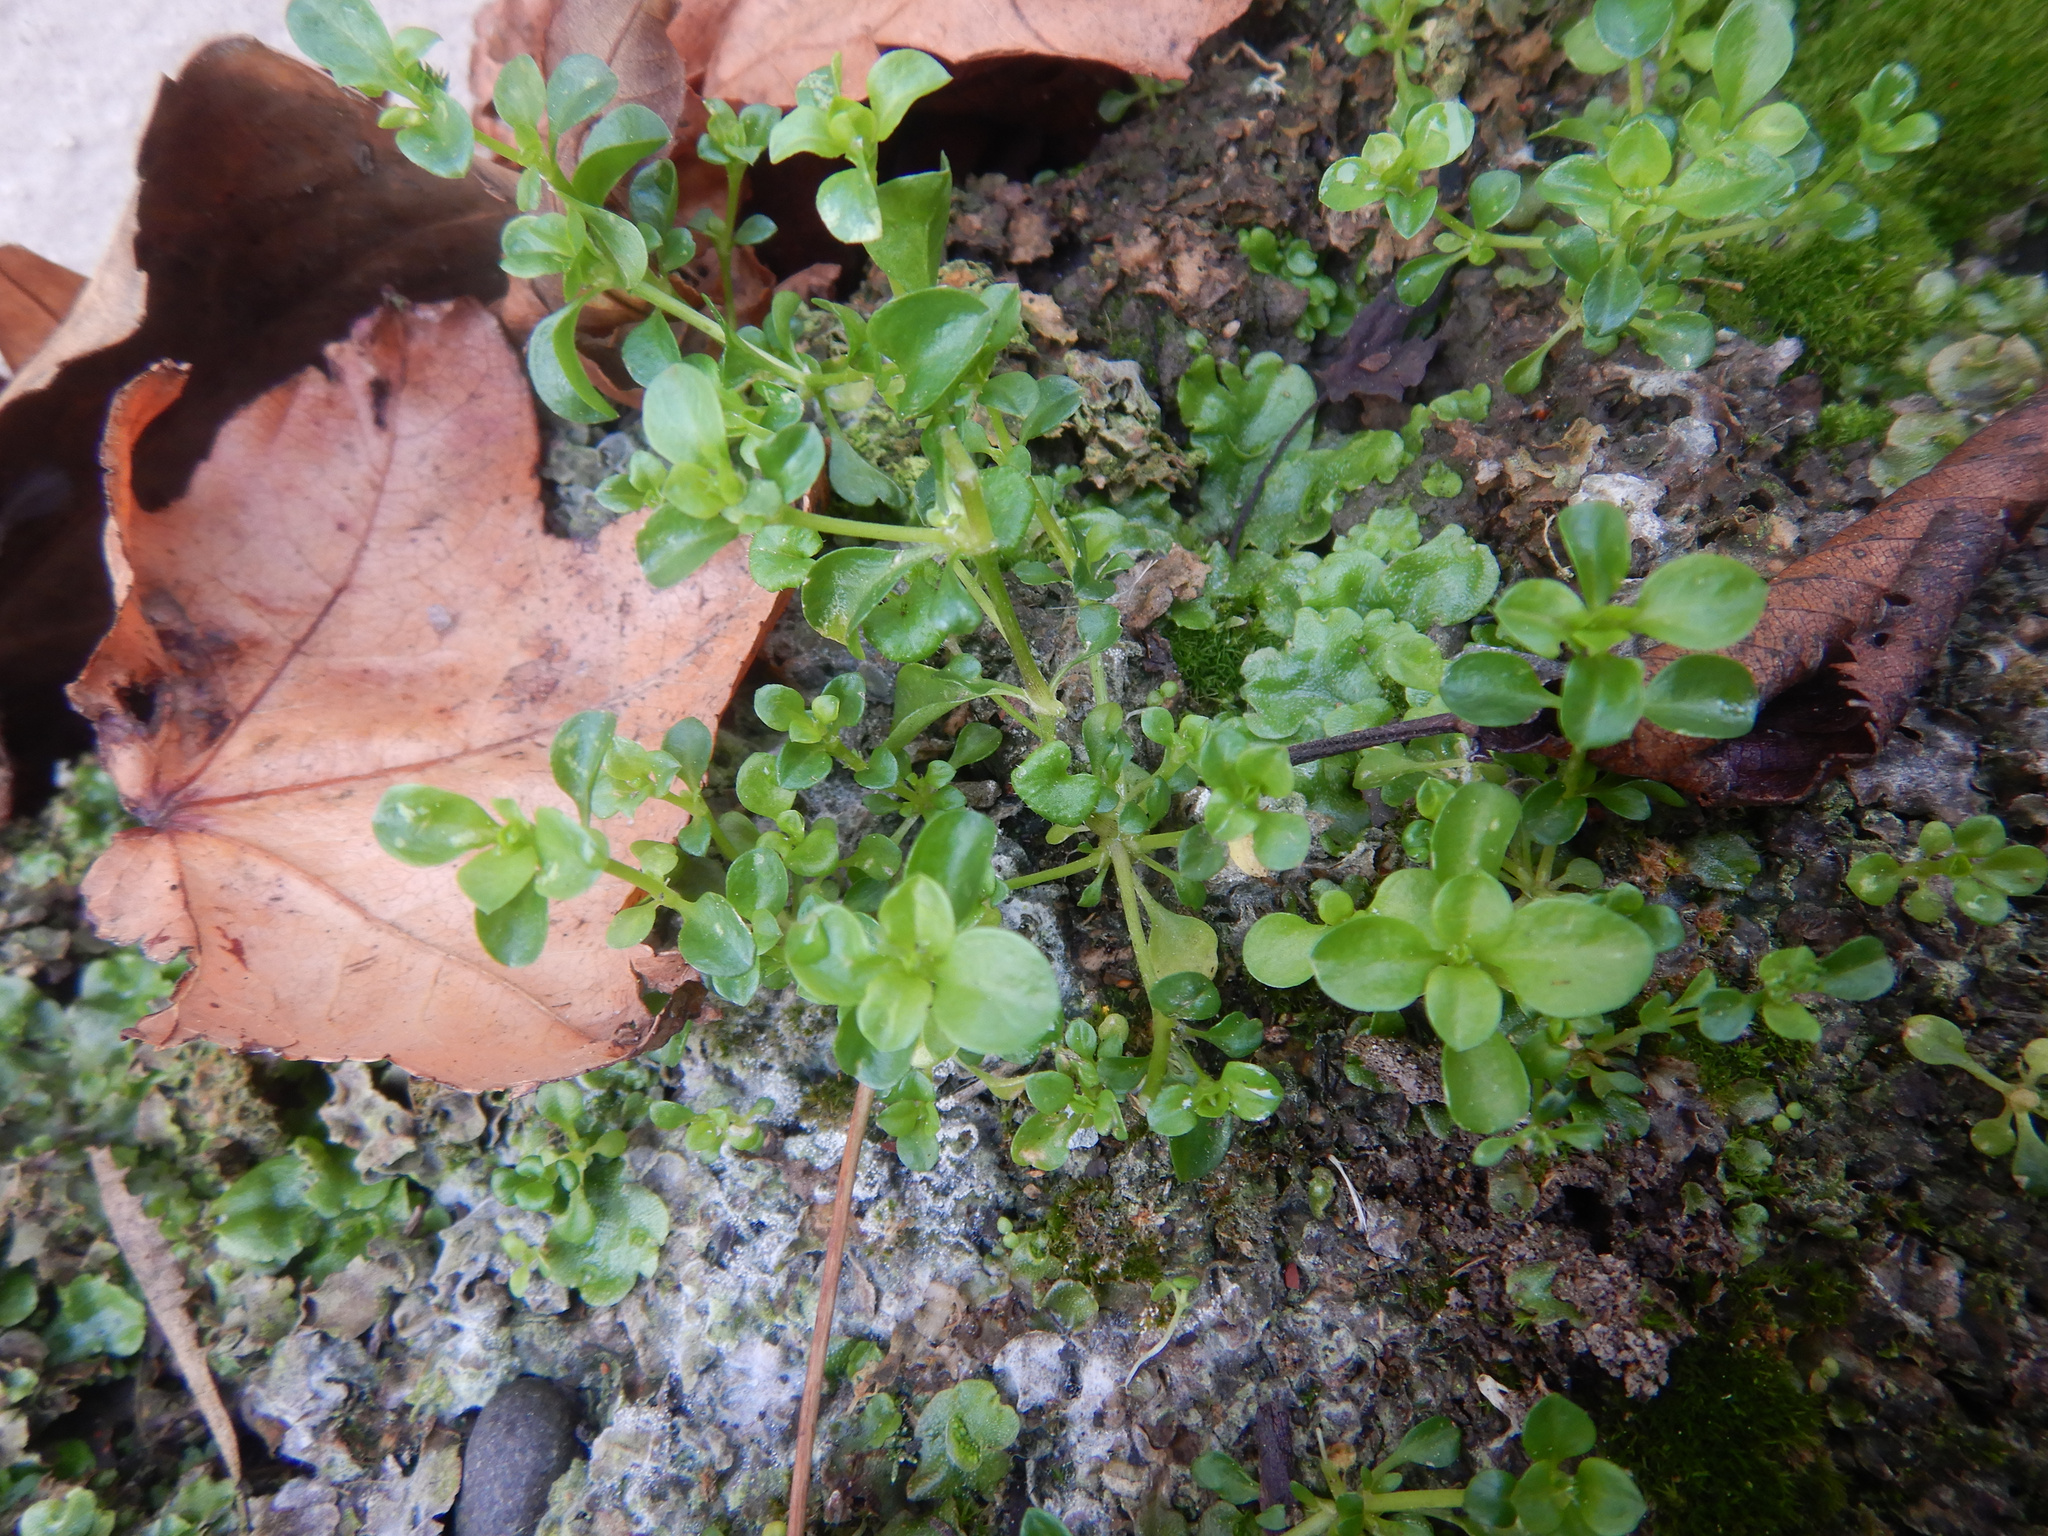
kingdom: Plantae
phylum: Tracheophyta
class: Magnoliopsida
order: Caryophyllales
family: Caryophyllaceae
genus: Polycarpon
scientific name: Polycarpon tetraphyllum
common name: Four-leaved all-seed
